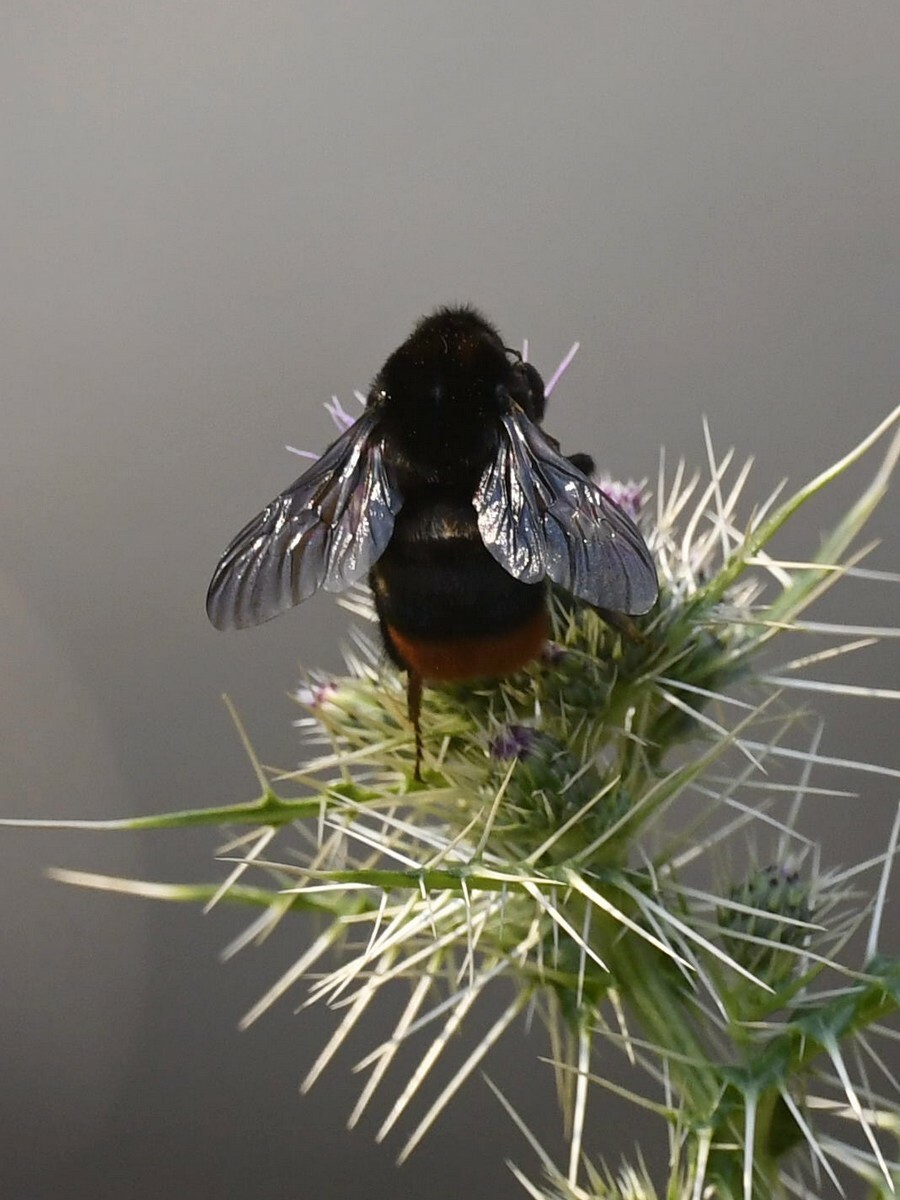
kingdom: Animalia
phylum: Arthropoda
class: Insecta
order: Hymenoptera
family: Apidae
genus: Bombus
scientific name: Bombus simillimus
